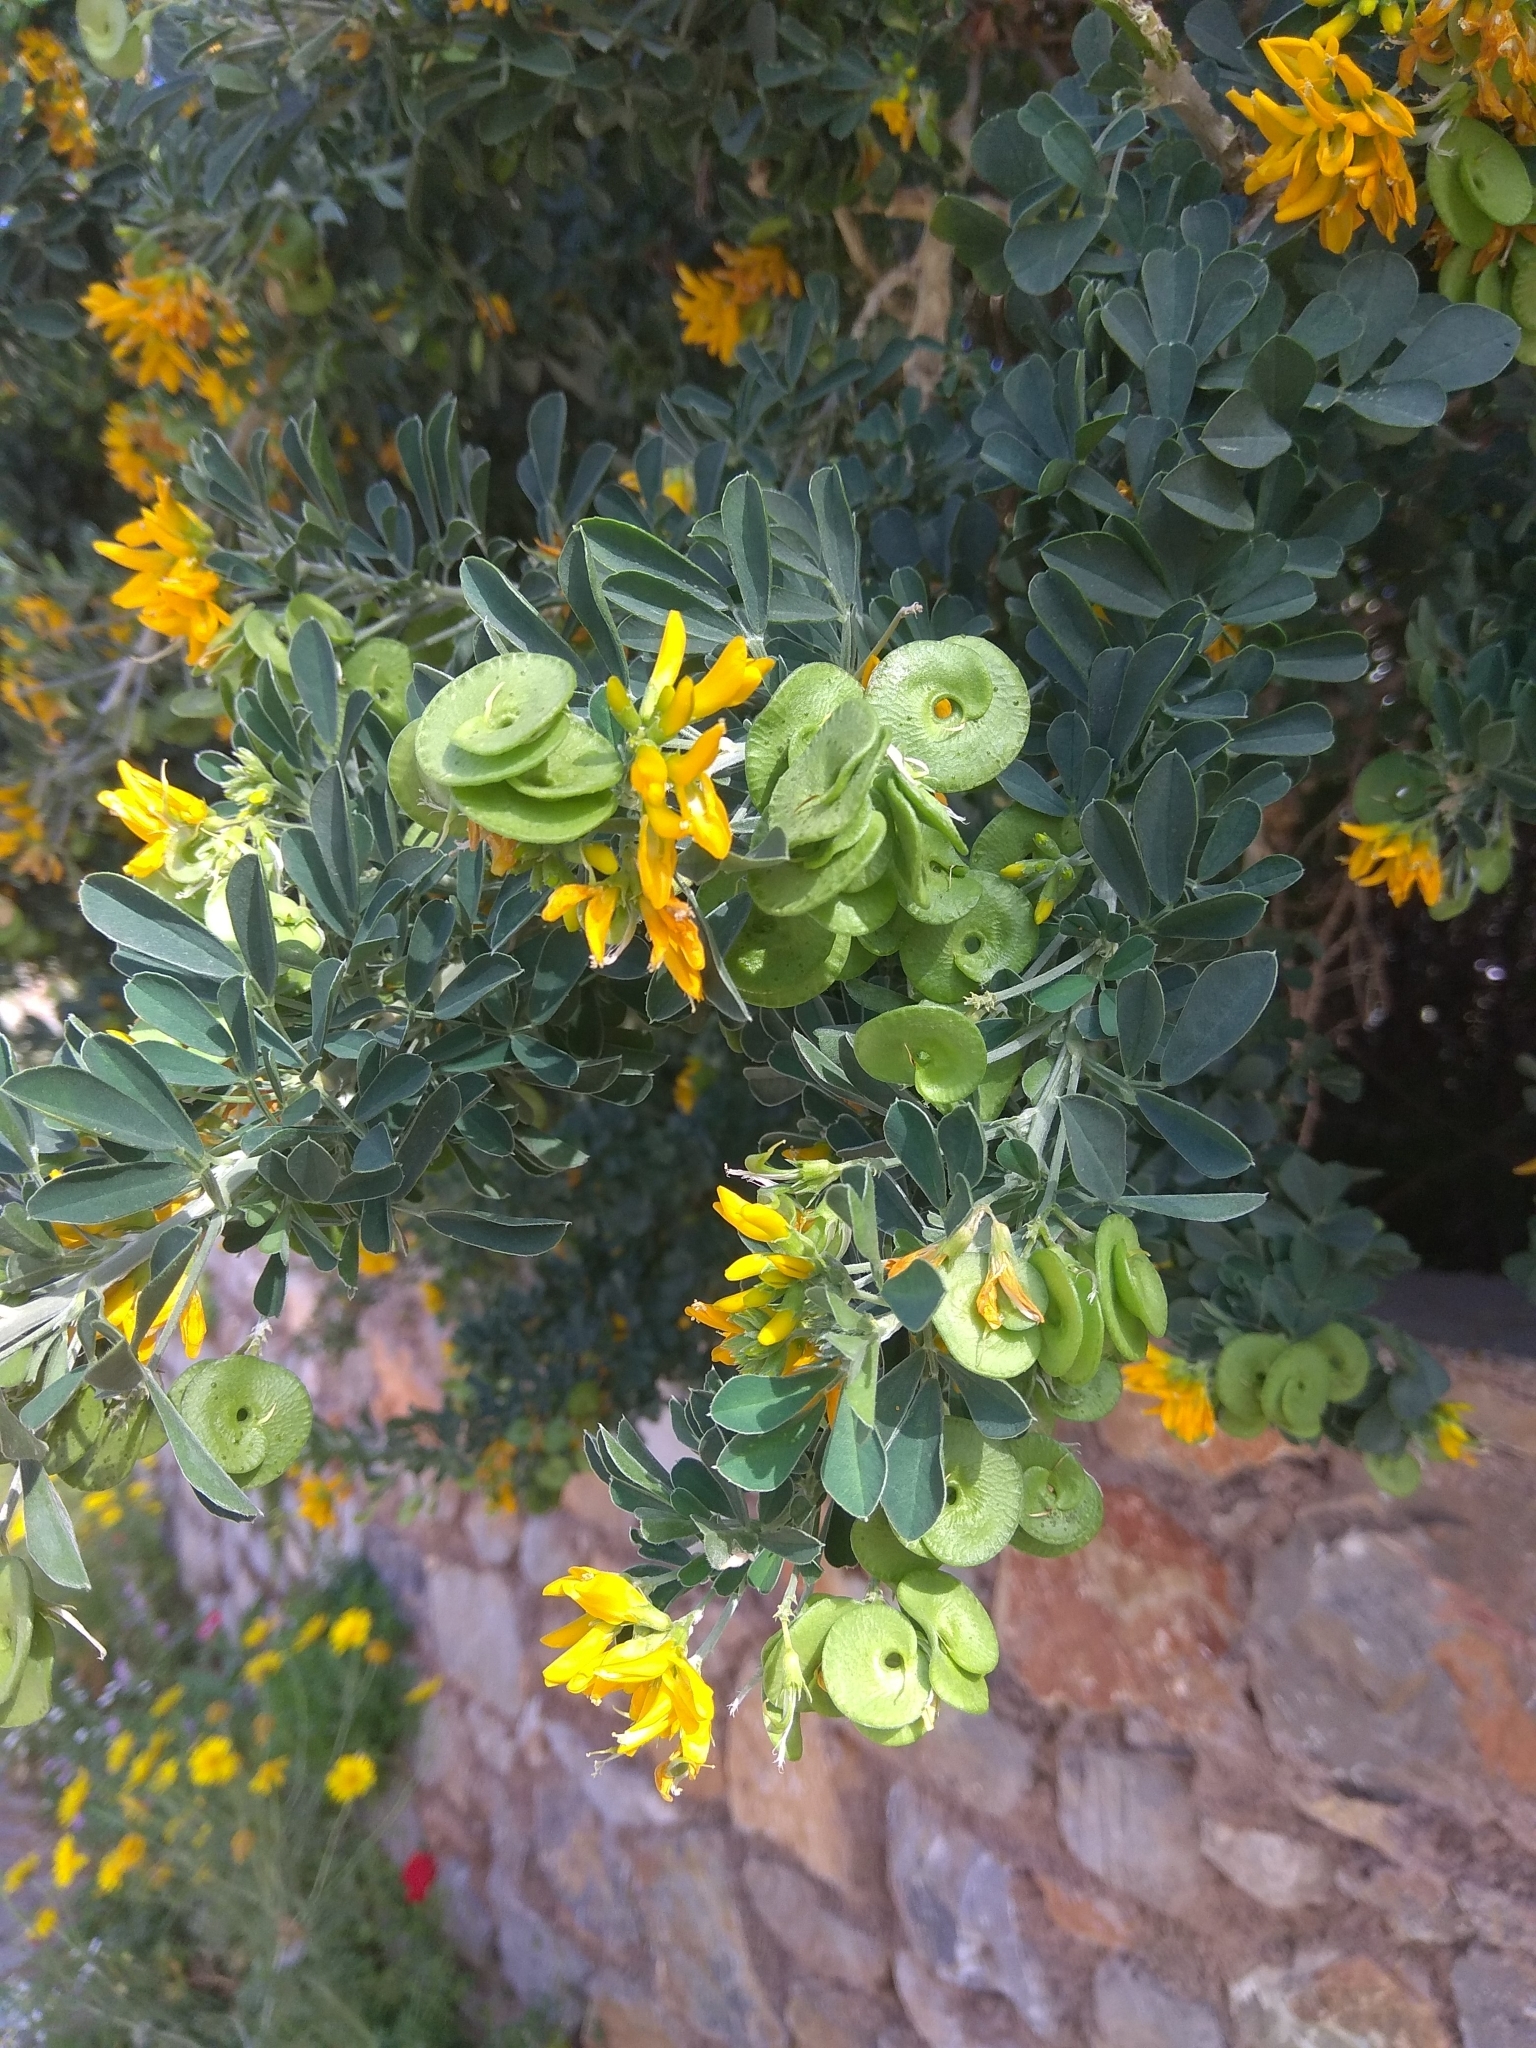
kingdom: Plantae
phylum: Tracheophyta
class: Magnoliopsida
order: Fabales
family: Fabaceae
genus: Medicago
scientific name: Medicago arborea
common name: Moon trefoil
